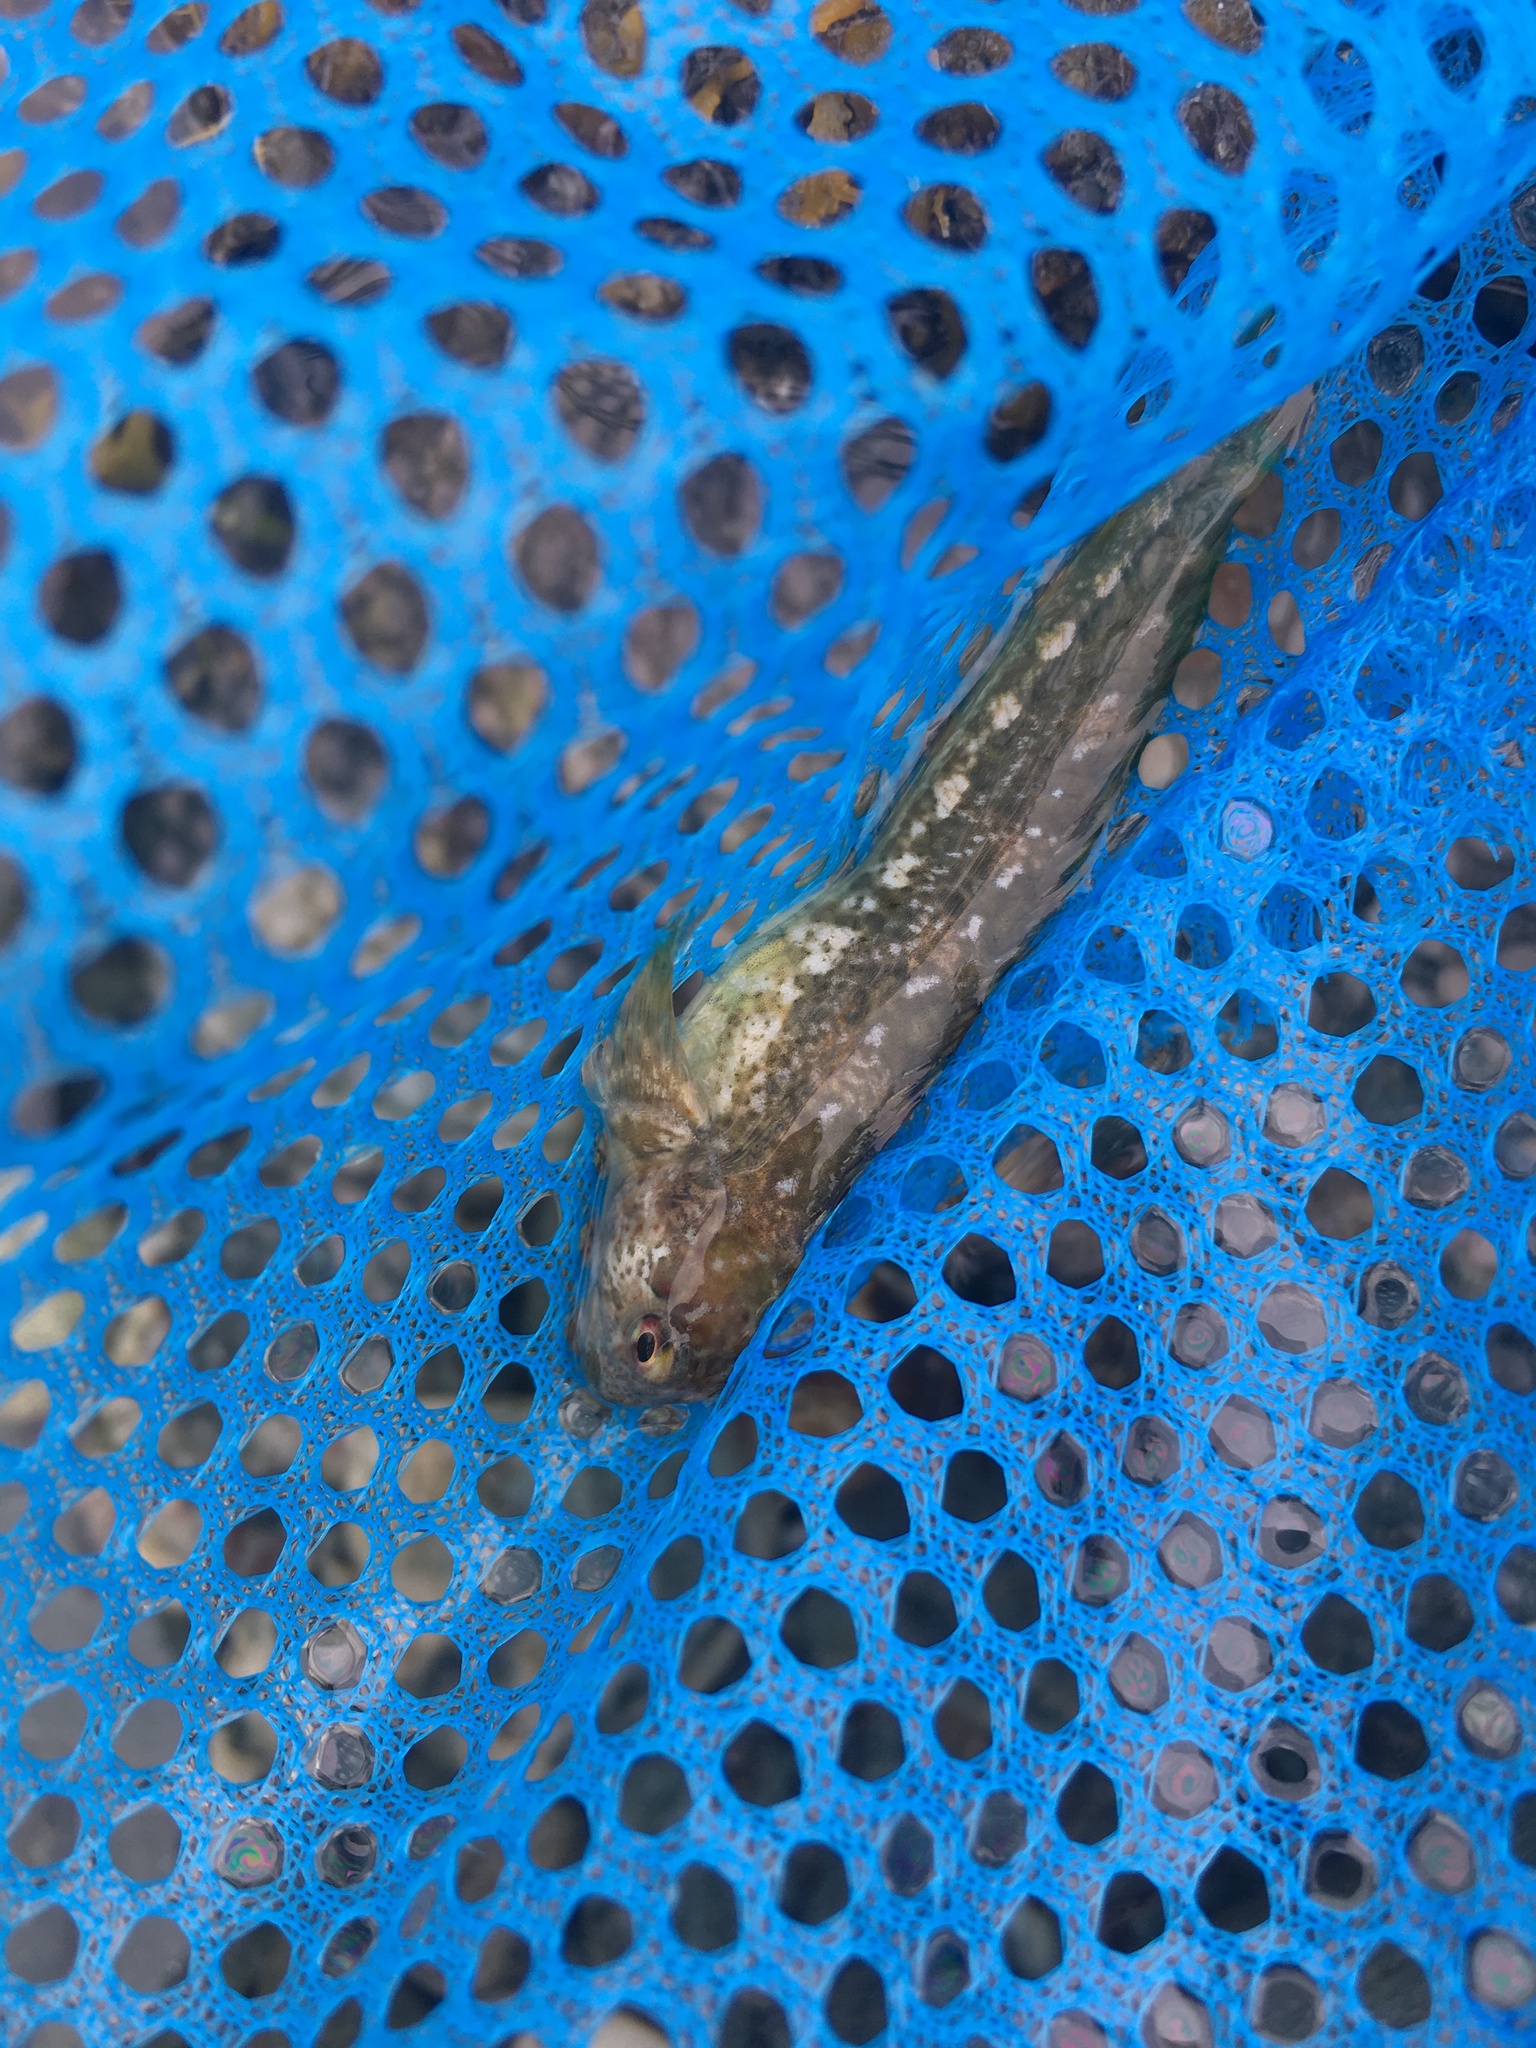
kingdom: Animalia
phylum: Chordata
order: Perciformes
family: Blenniidae
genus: Lipophrys
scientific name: Lipophrys pholis
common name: Shanny
